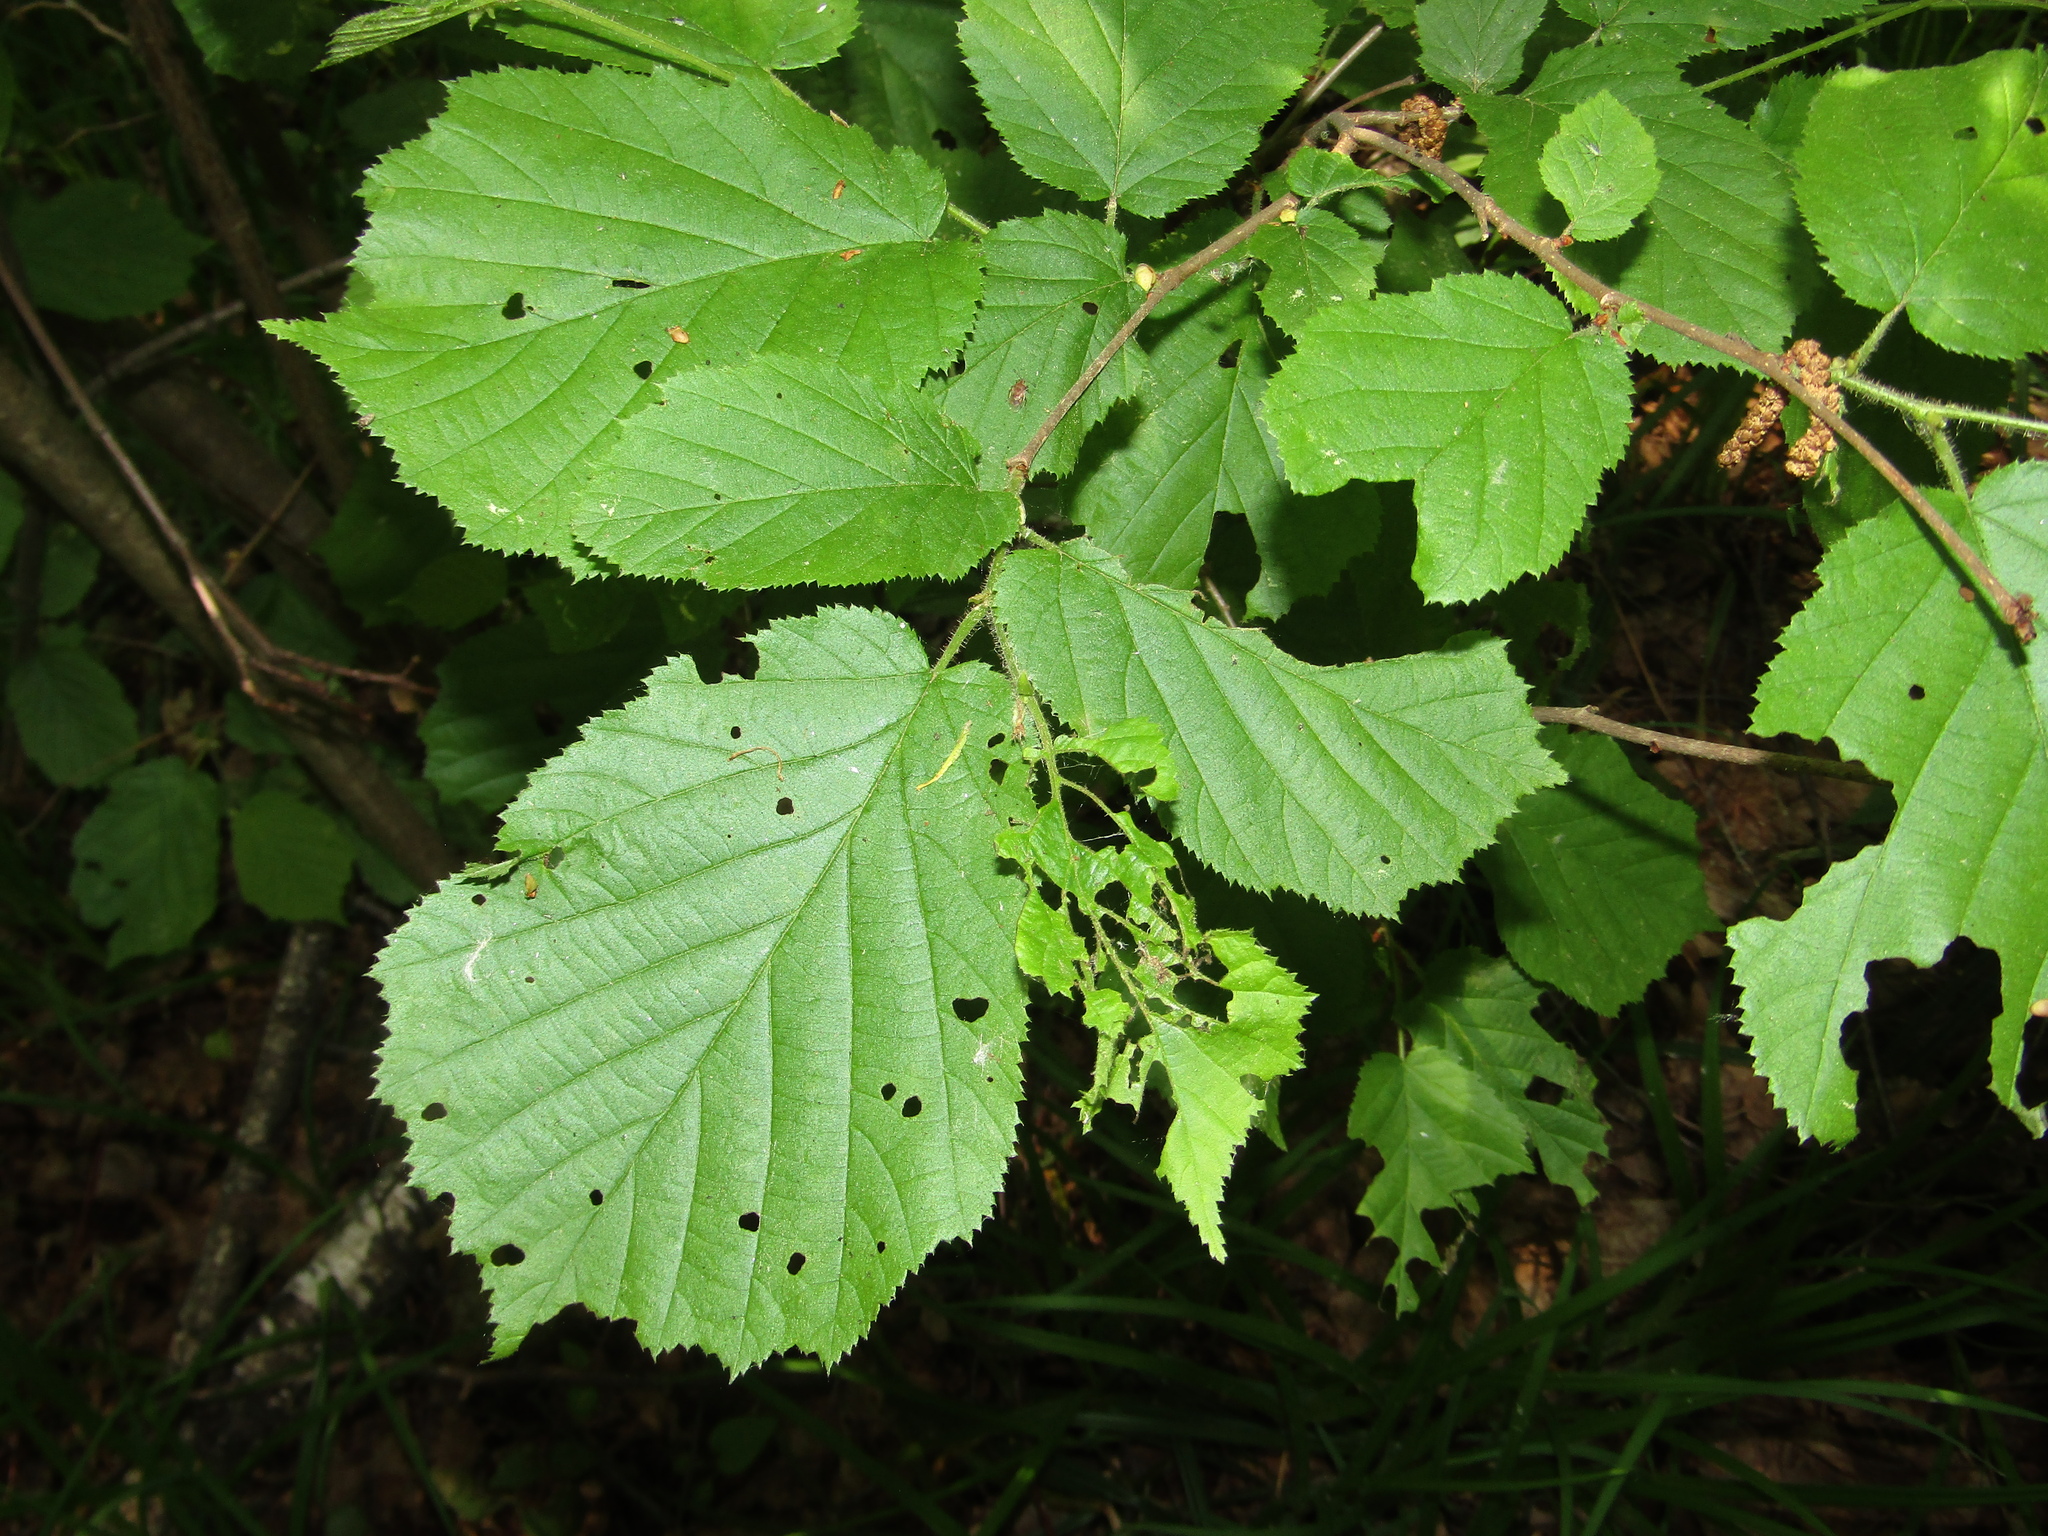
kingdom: Plantae
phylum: Tracheophyta
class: Magnoliopsida
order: Fagales
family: Betulaceae
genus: Corylus
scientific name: Corylus avellana
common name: European hazel
